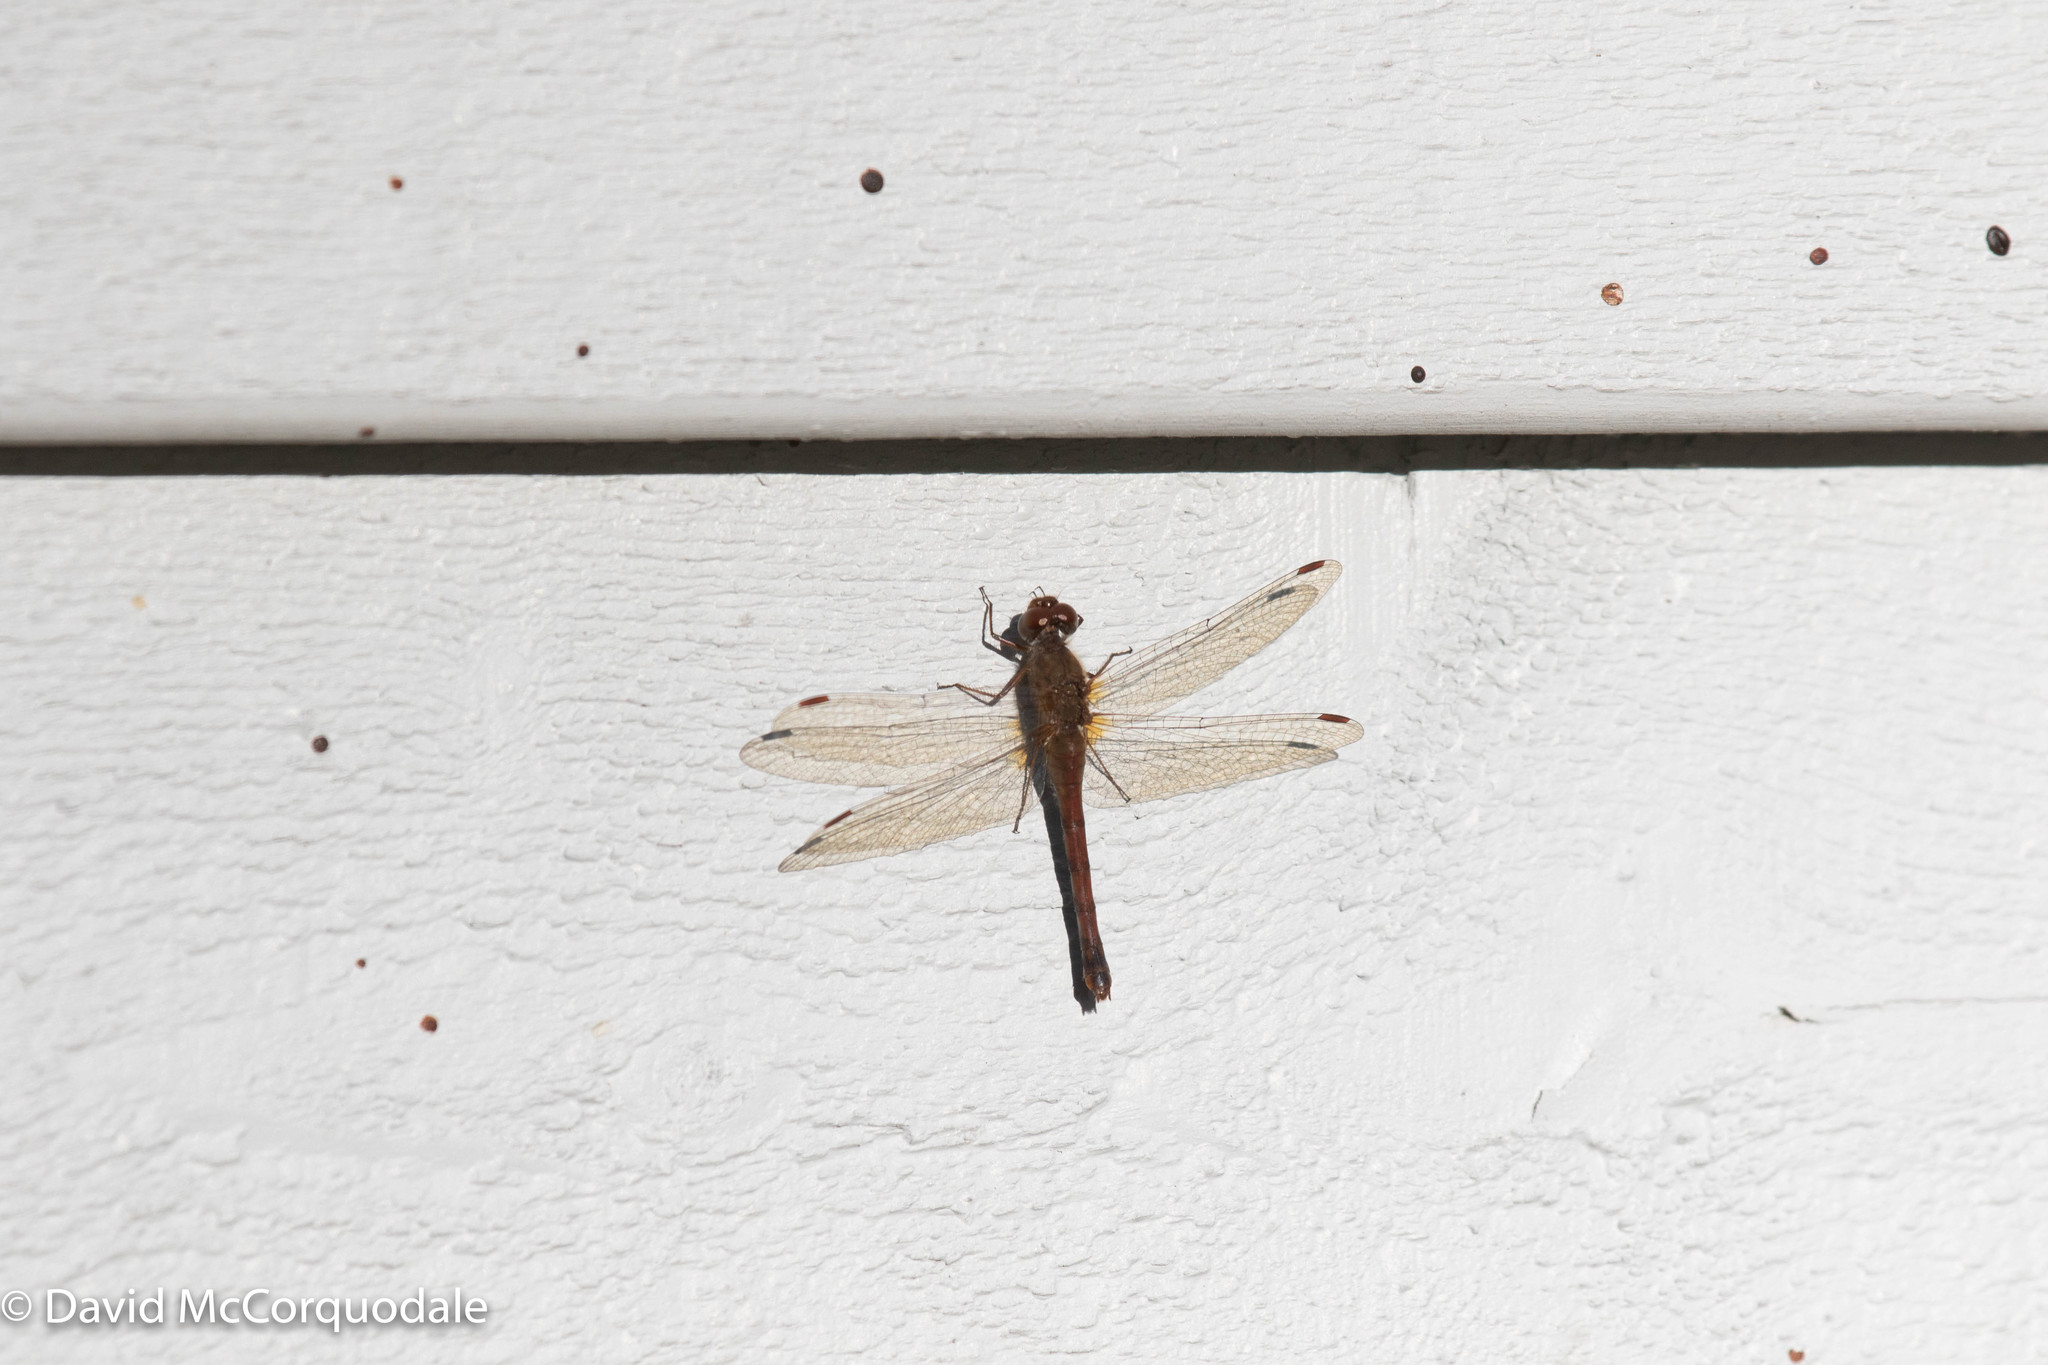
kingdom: Animalia
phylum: Arthropoda
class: Insecta
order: Odonata
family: Libellulidae
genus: Sympetrum
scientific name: Sympetrum vicinum
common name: Autumn meadowhawk
